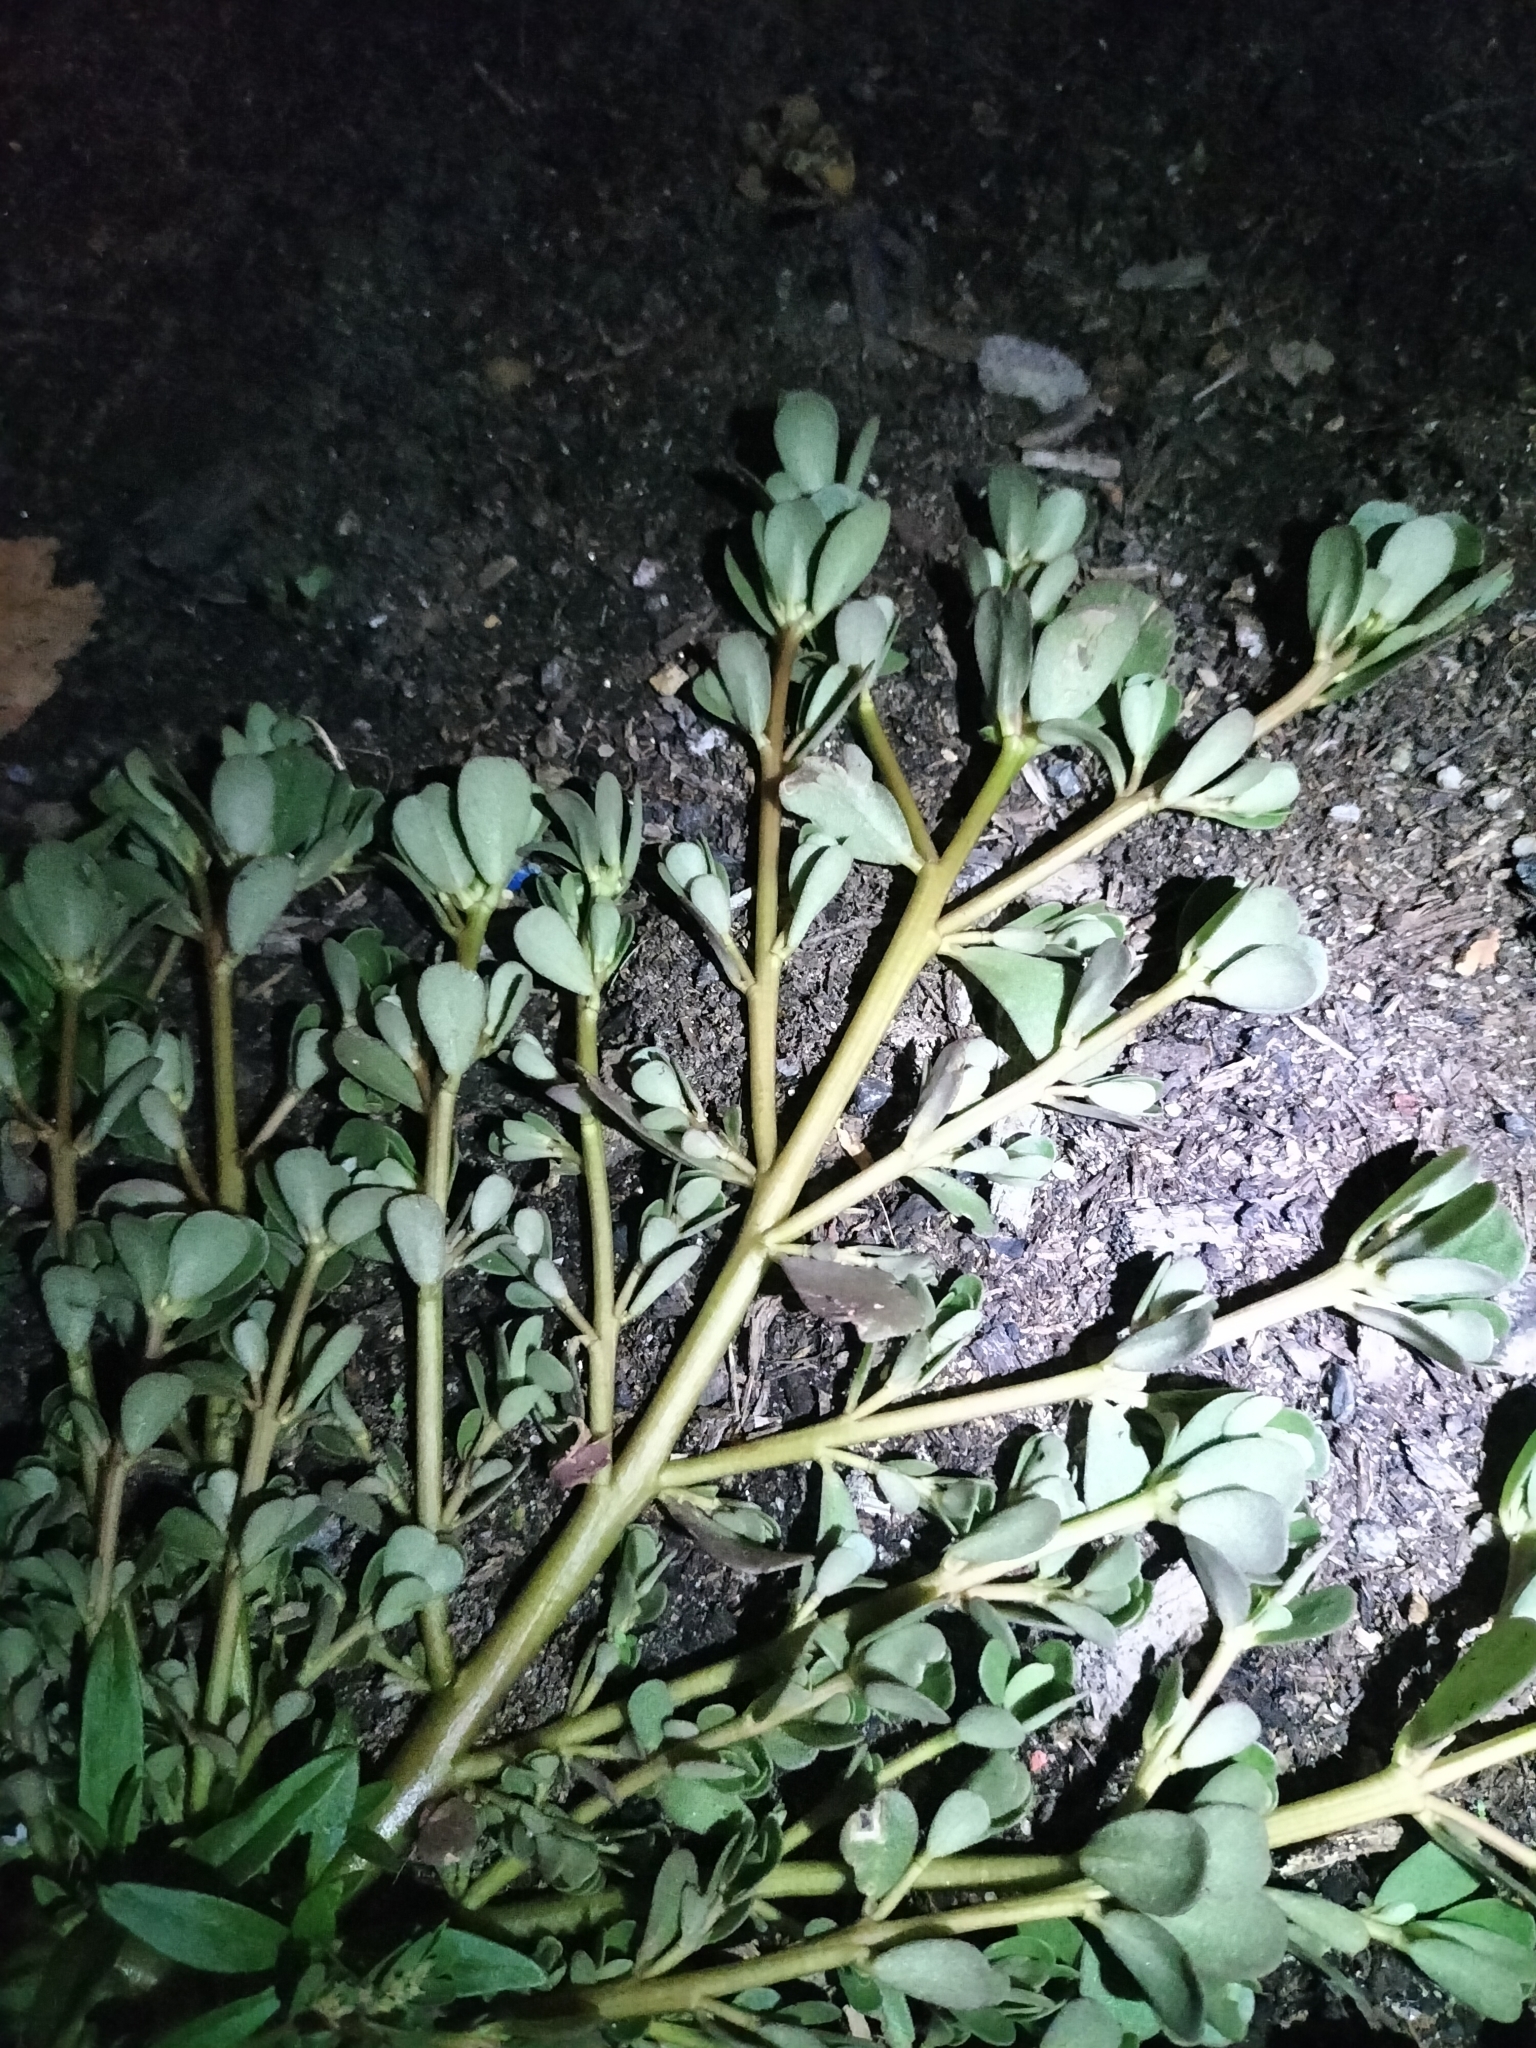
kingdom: Plantae
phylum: Tracheophyta
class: Magnoliopsida
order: Caryophyllales
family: Portulacaceae
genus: Portulaca
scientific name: Portulaca oleracea
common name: Common purslane
